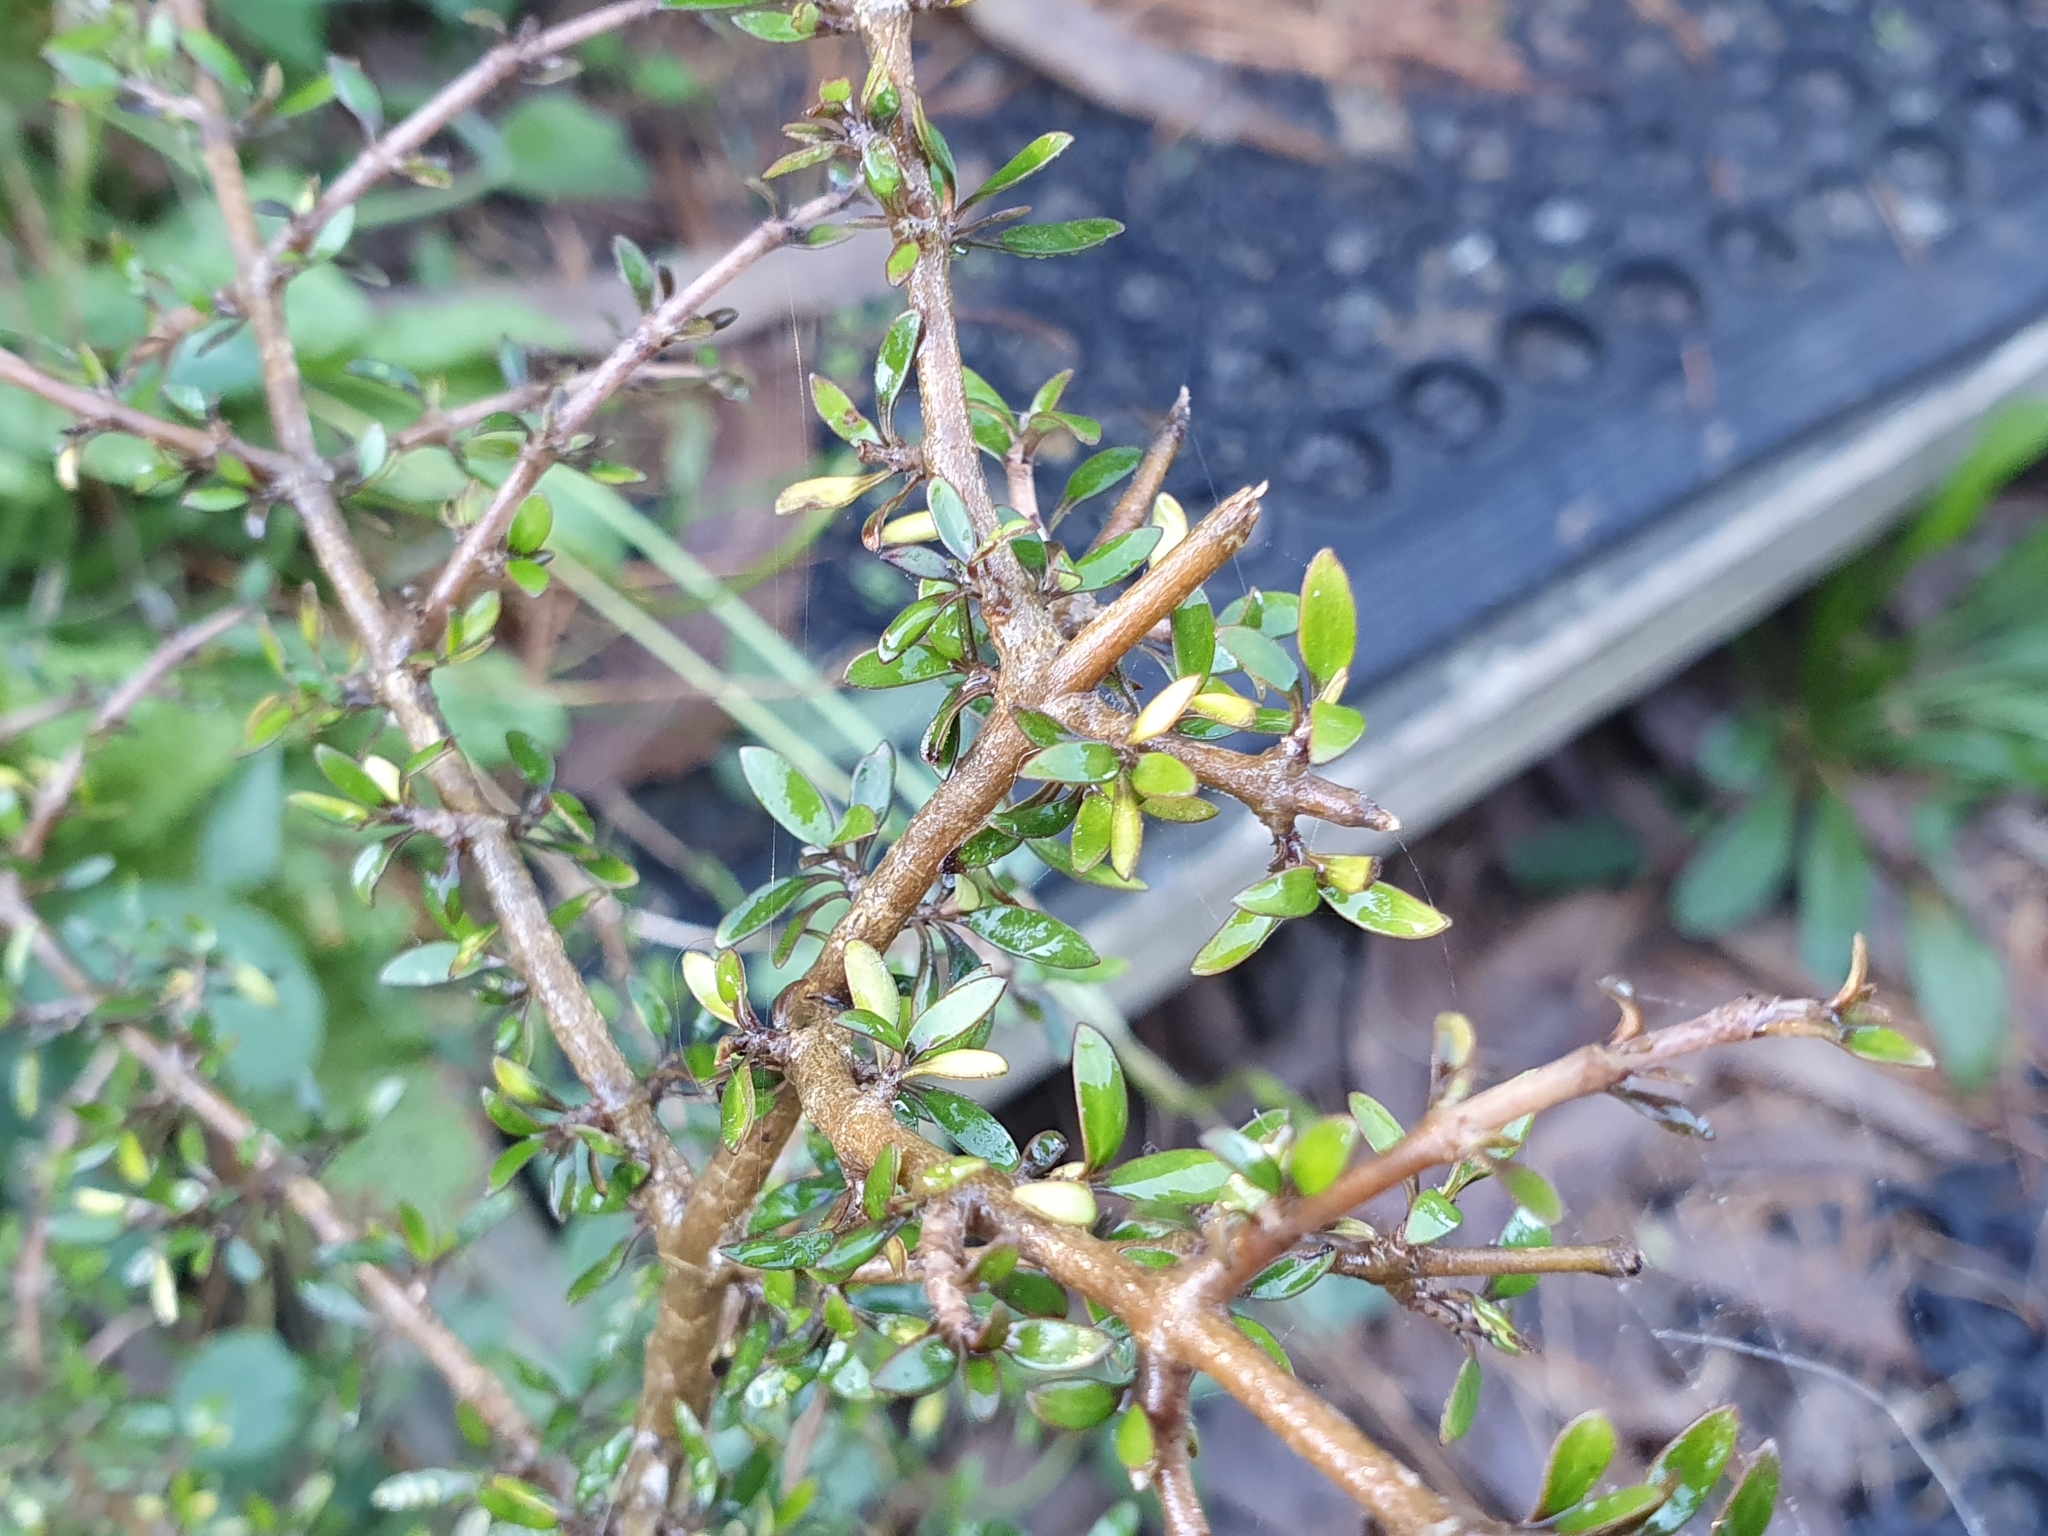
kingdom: Plantae
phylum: Tracheophyta
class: Magnoliopsida
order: Gentianales
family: Rubiaceae
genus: Coprosma
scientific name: Coprosma propinqua
